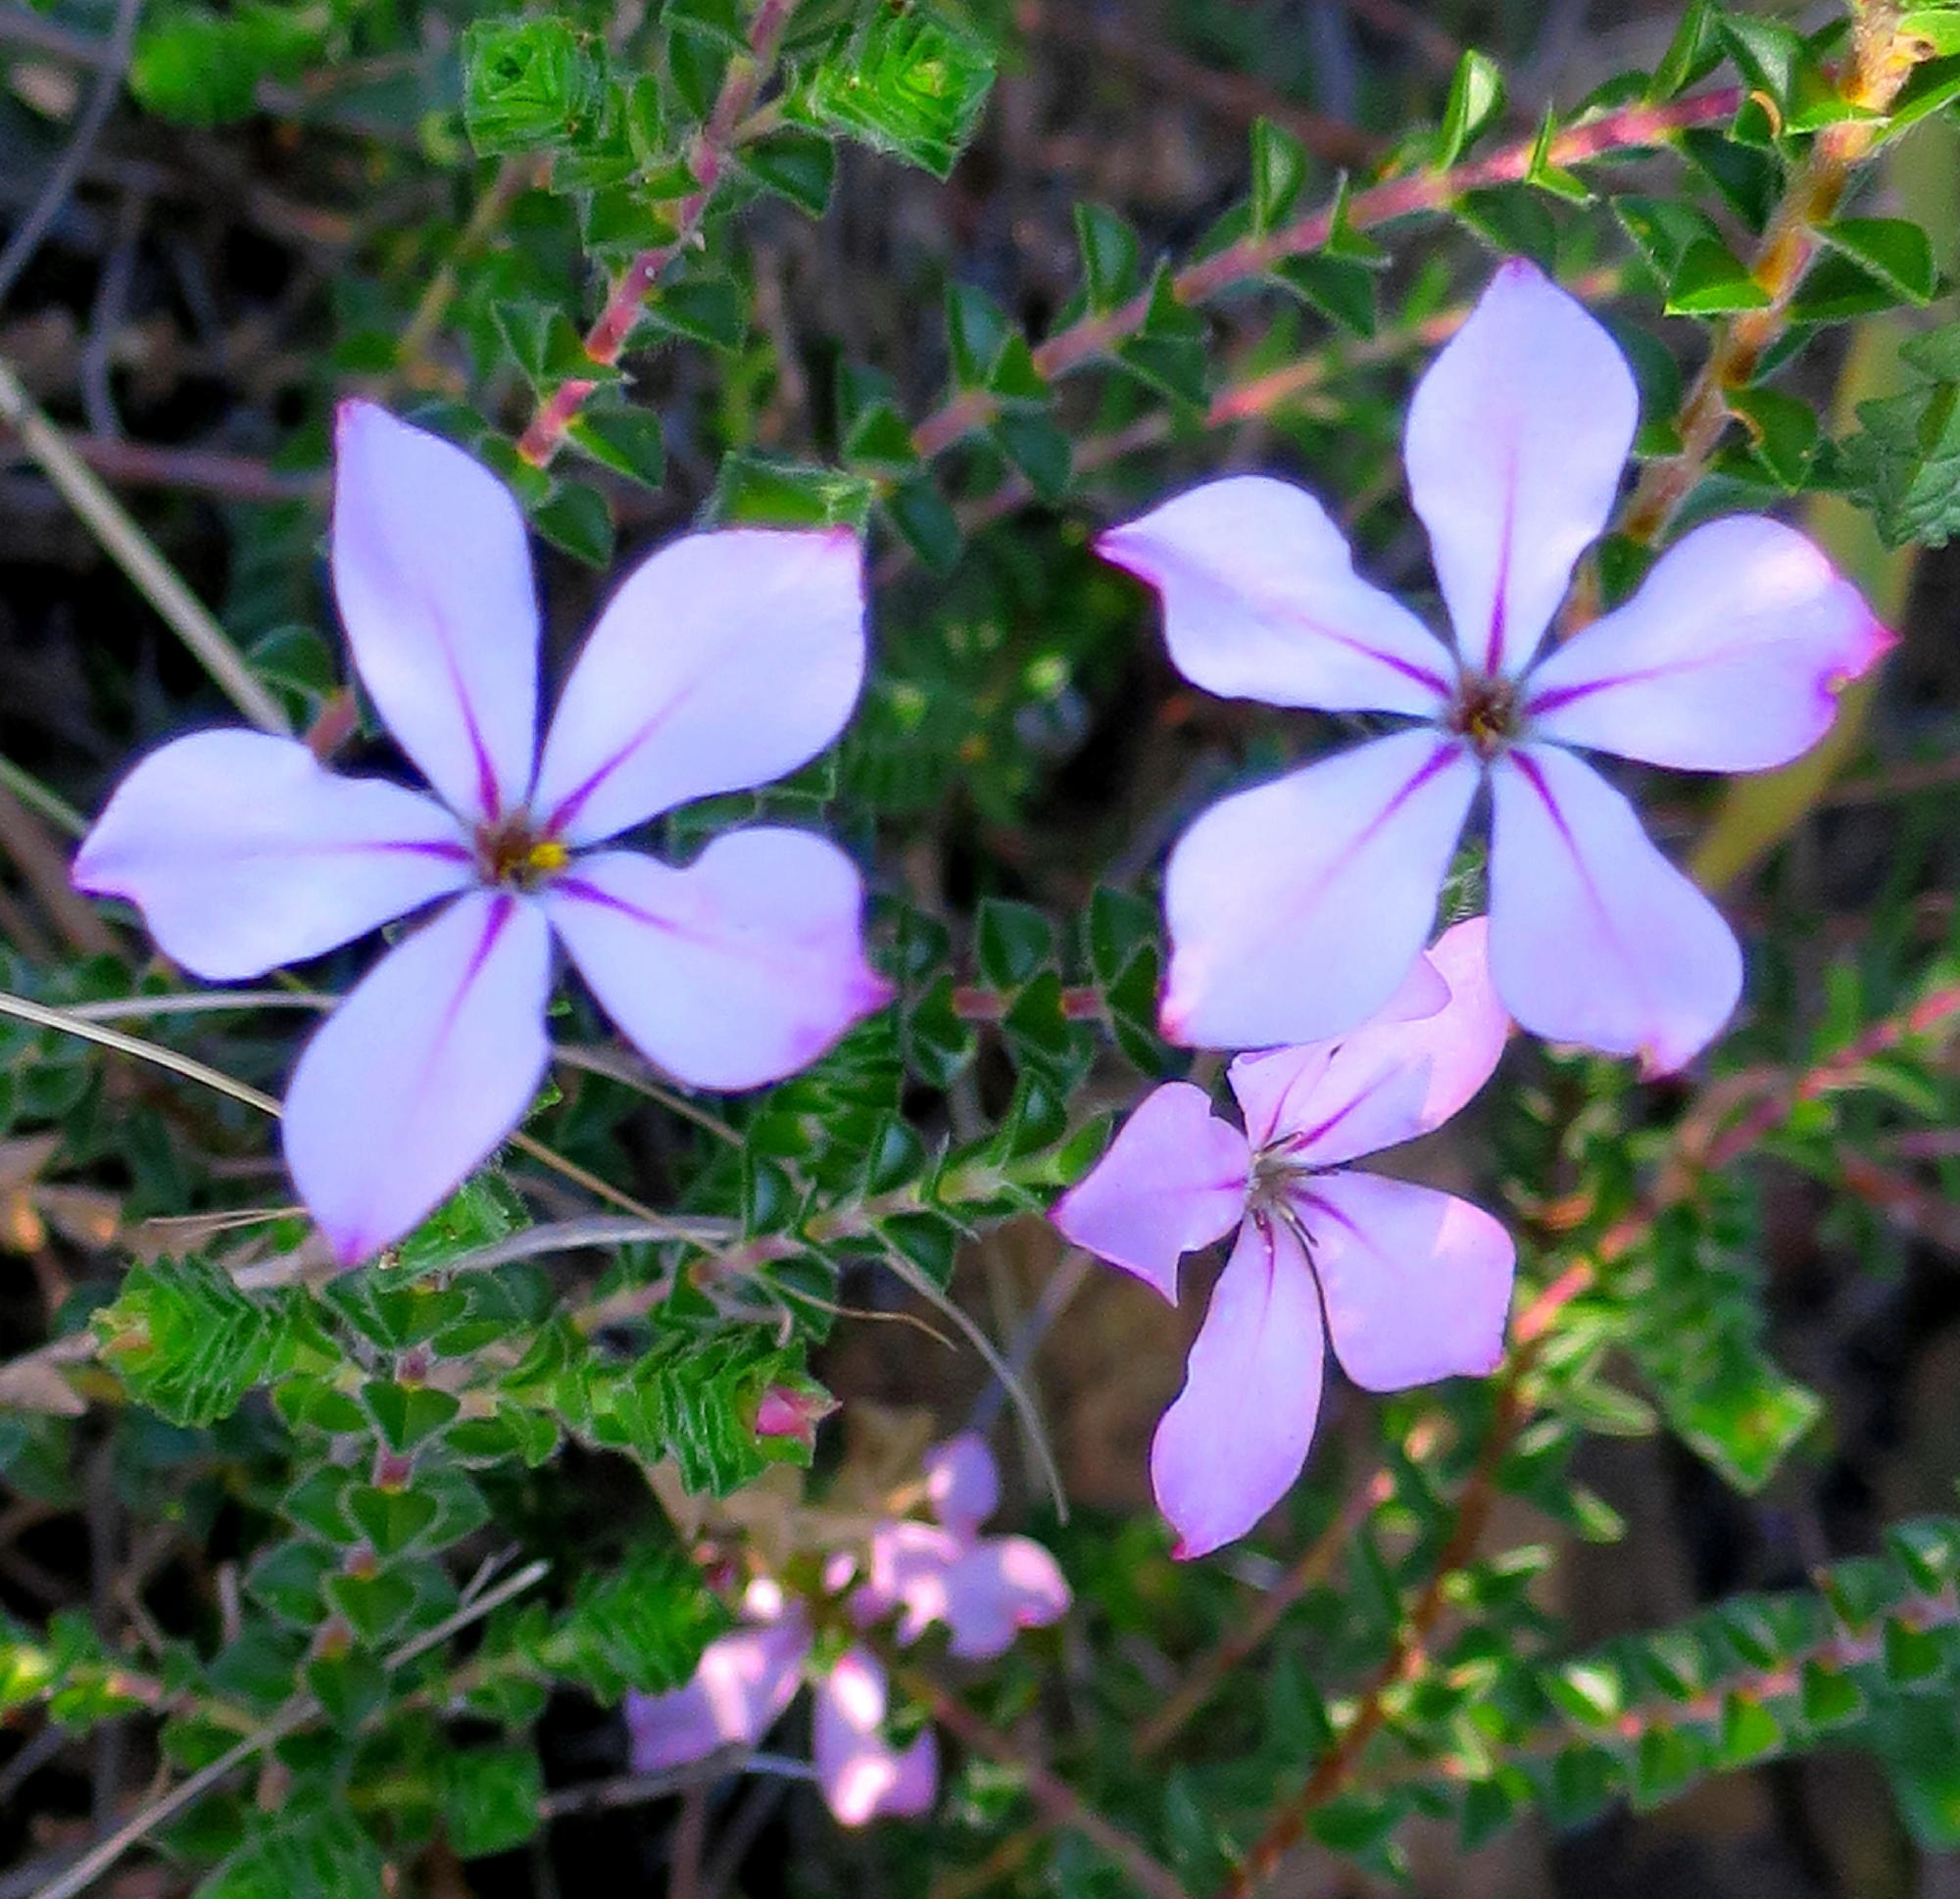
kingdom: Plantae
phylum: Tracheophyta
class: Magnoliopsida
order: Sapindales
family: Rutaceae
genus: Acmadenia
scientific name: Acmadenia tetragona
